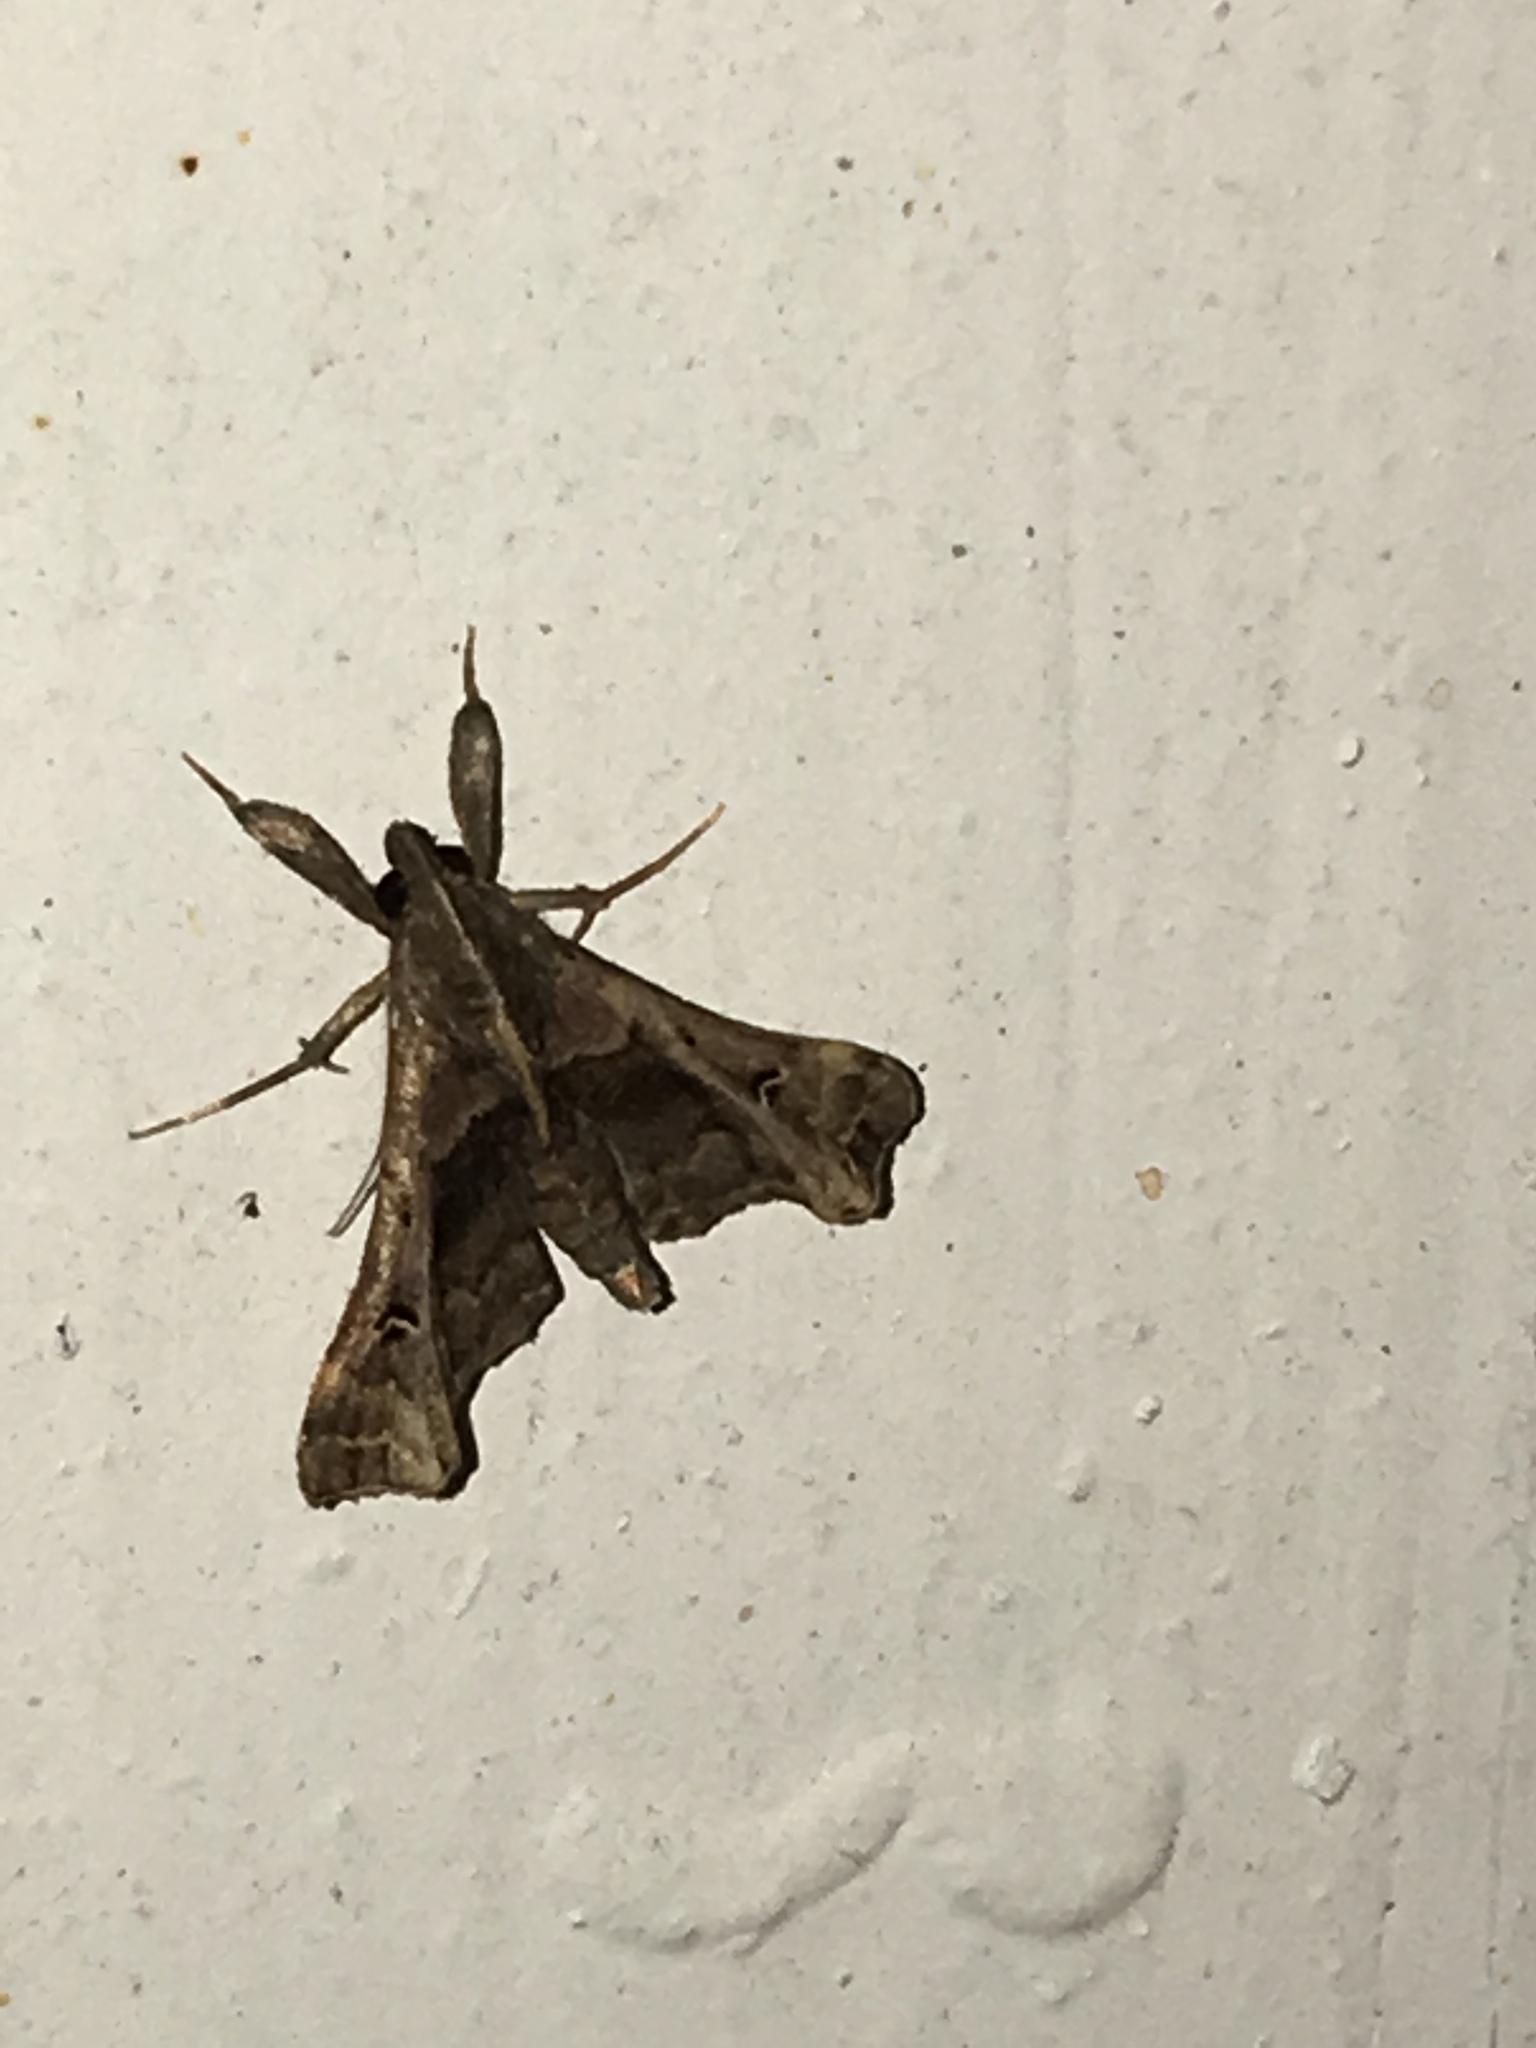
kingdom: Animalia
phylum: Arthropoda
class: Insecta
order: Lepidoptera
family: Erebidae
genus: Palthis
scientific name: Palthis asopialis
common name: Faint-spotted palthis moth
